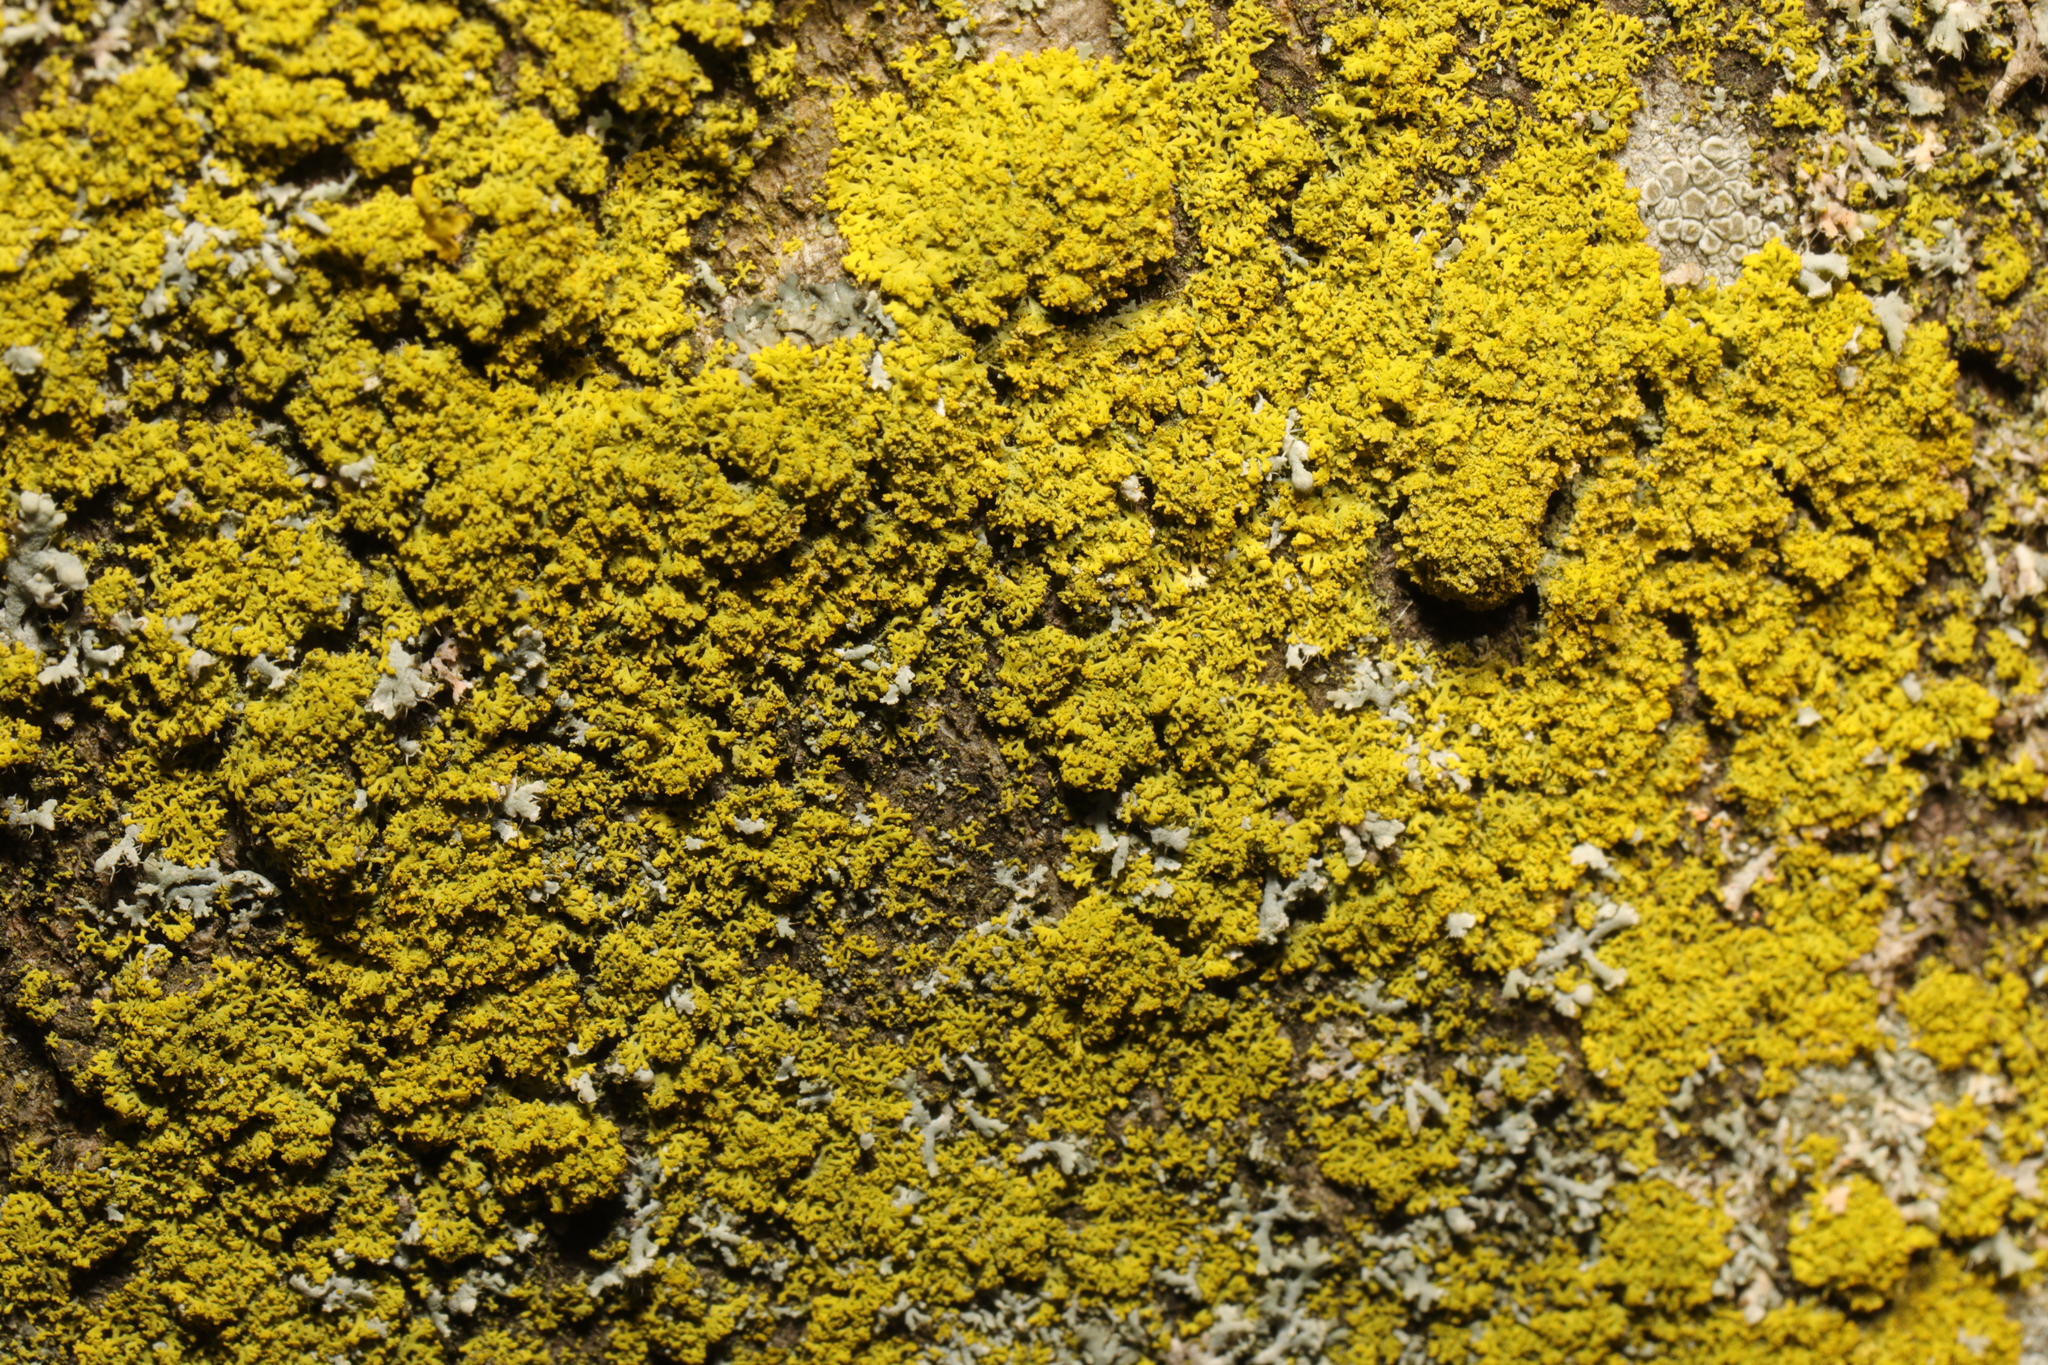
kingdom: Fungi
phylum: Ascomycota
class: Candelariomycetes
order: Candelariales
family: Candelariaceae
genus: Candelaria
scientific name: Candelaria concolor
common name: Candleflame lichen
